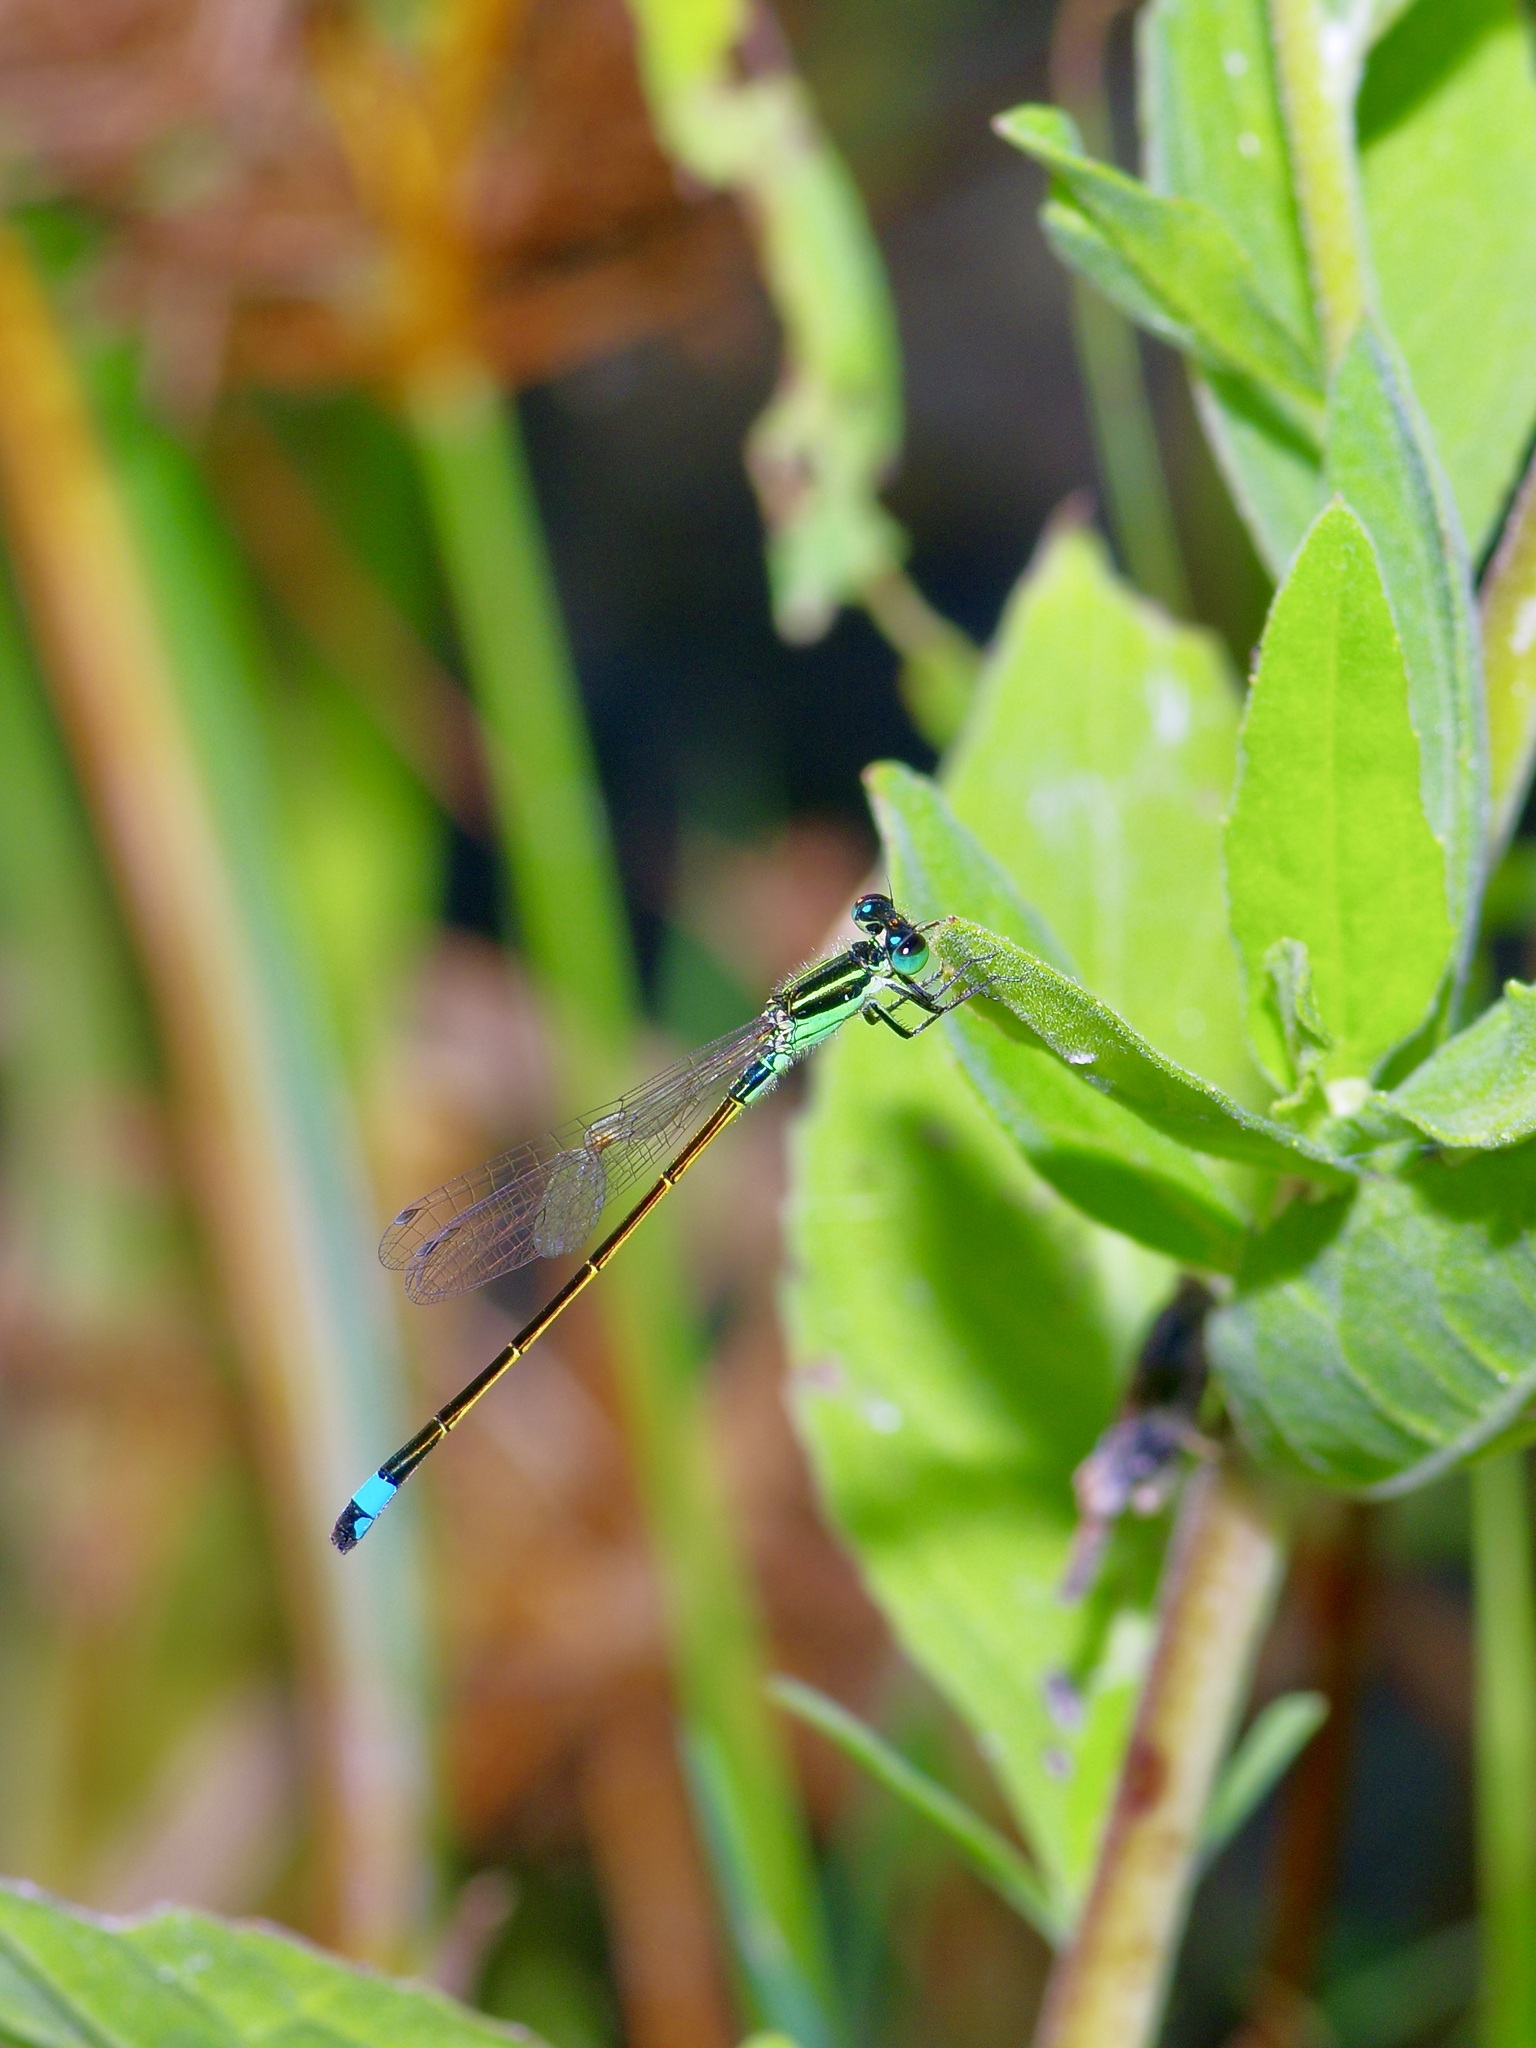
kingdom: Animalia
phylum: Arthropoda
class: Insecta
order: Odonata
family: Coenagrionidae
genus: Ischnura
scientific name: Ischnura ramburii
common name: Rambur's forktail
